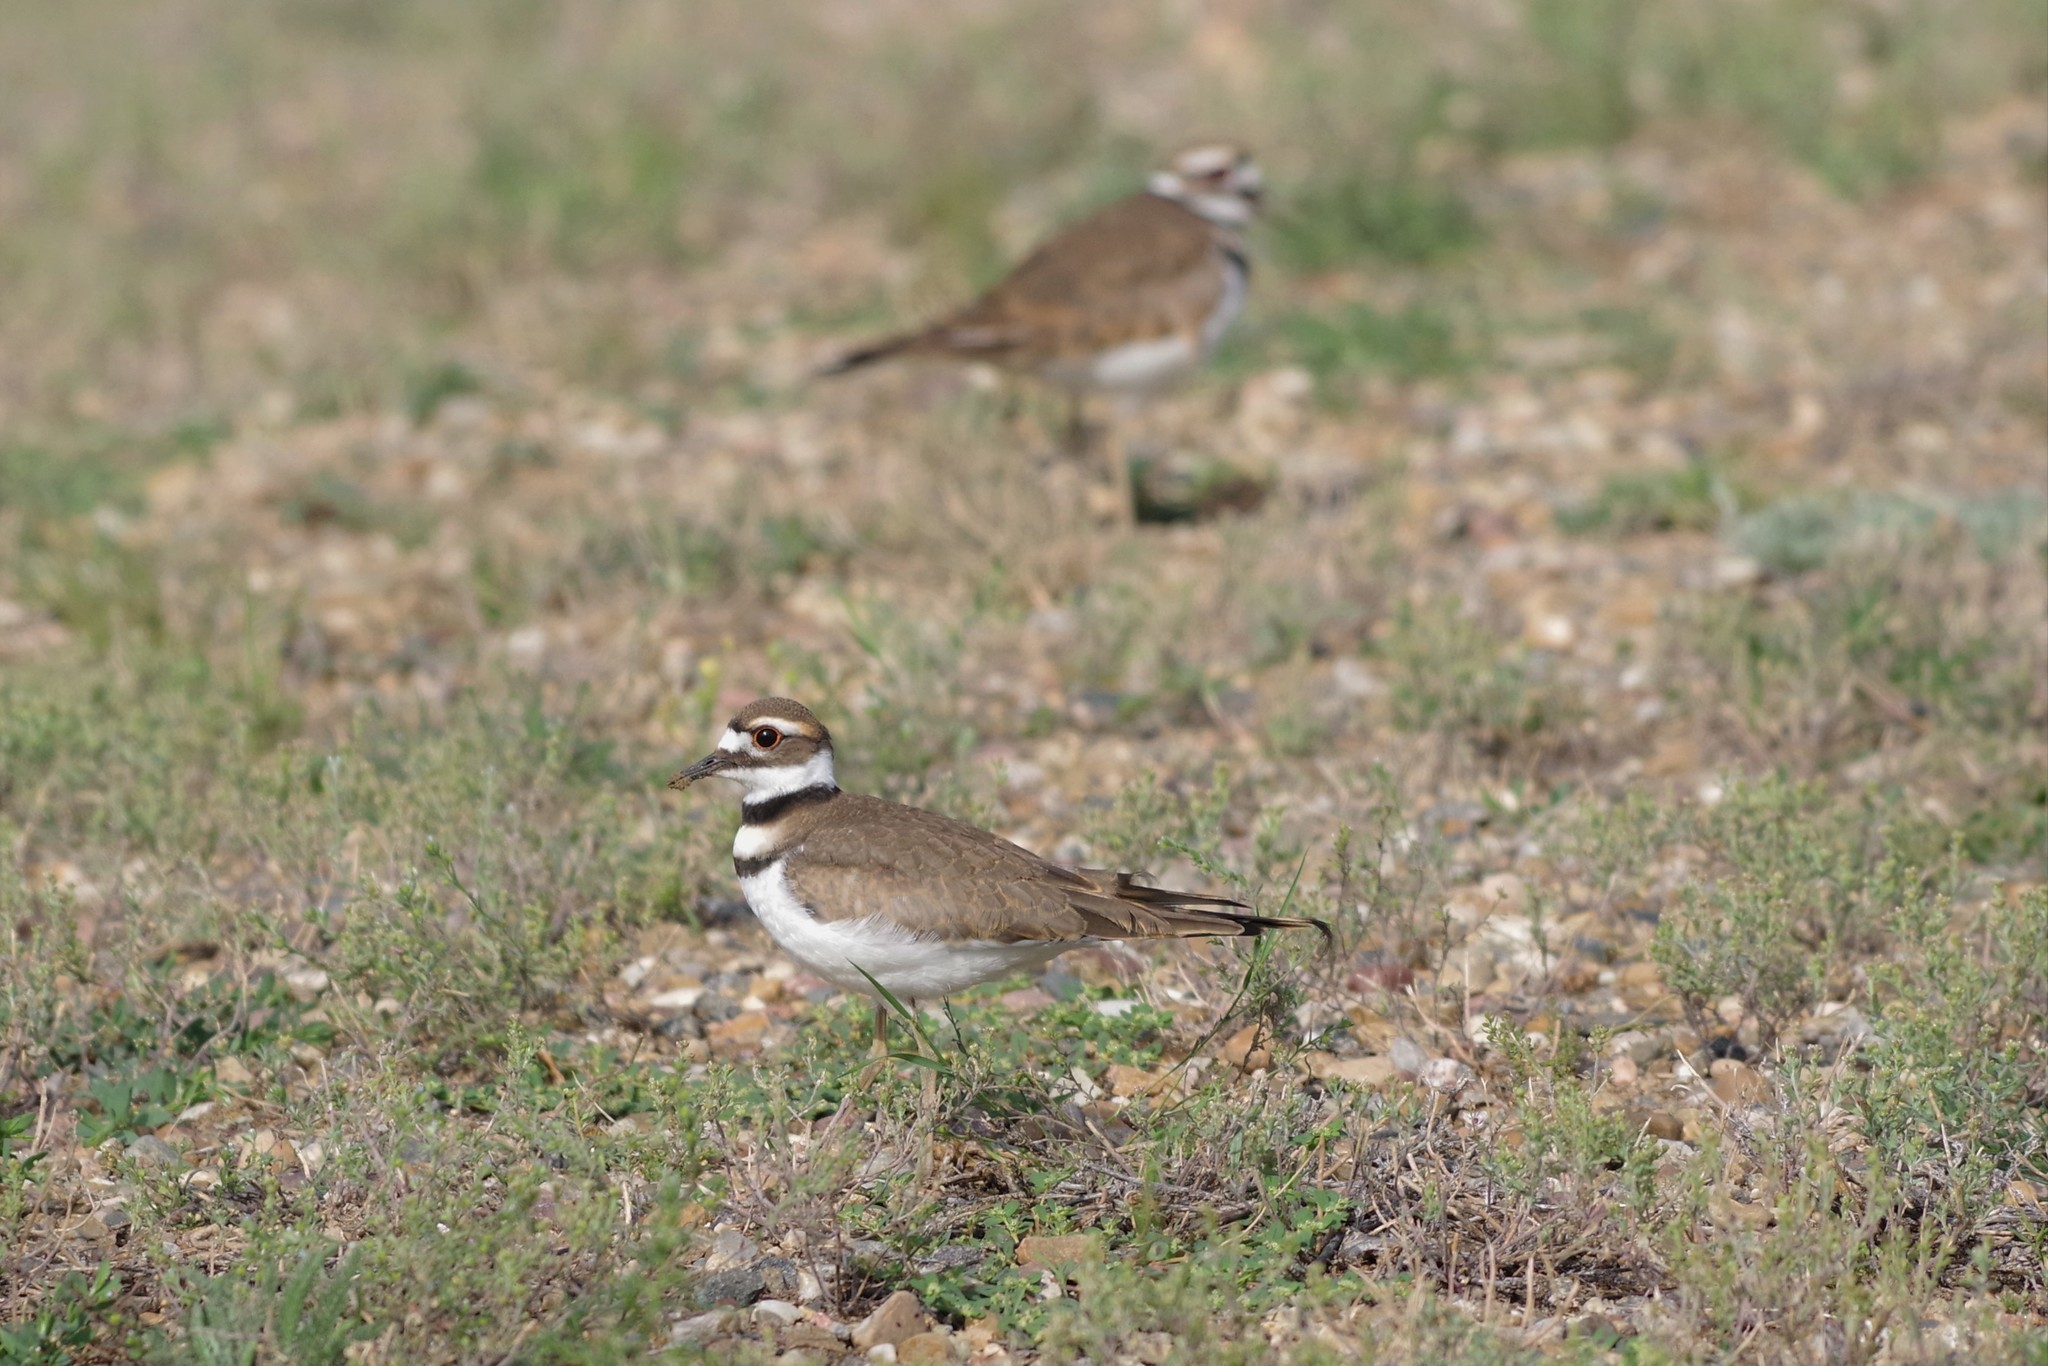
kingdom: Animalia
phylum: Chordata
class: Aves
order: Charadriiformes
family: Charadriidae
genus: Charadrius
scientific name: Charadrius vociferus
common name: Killdeer
